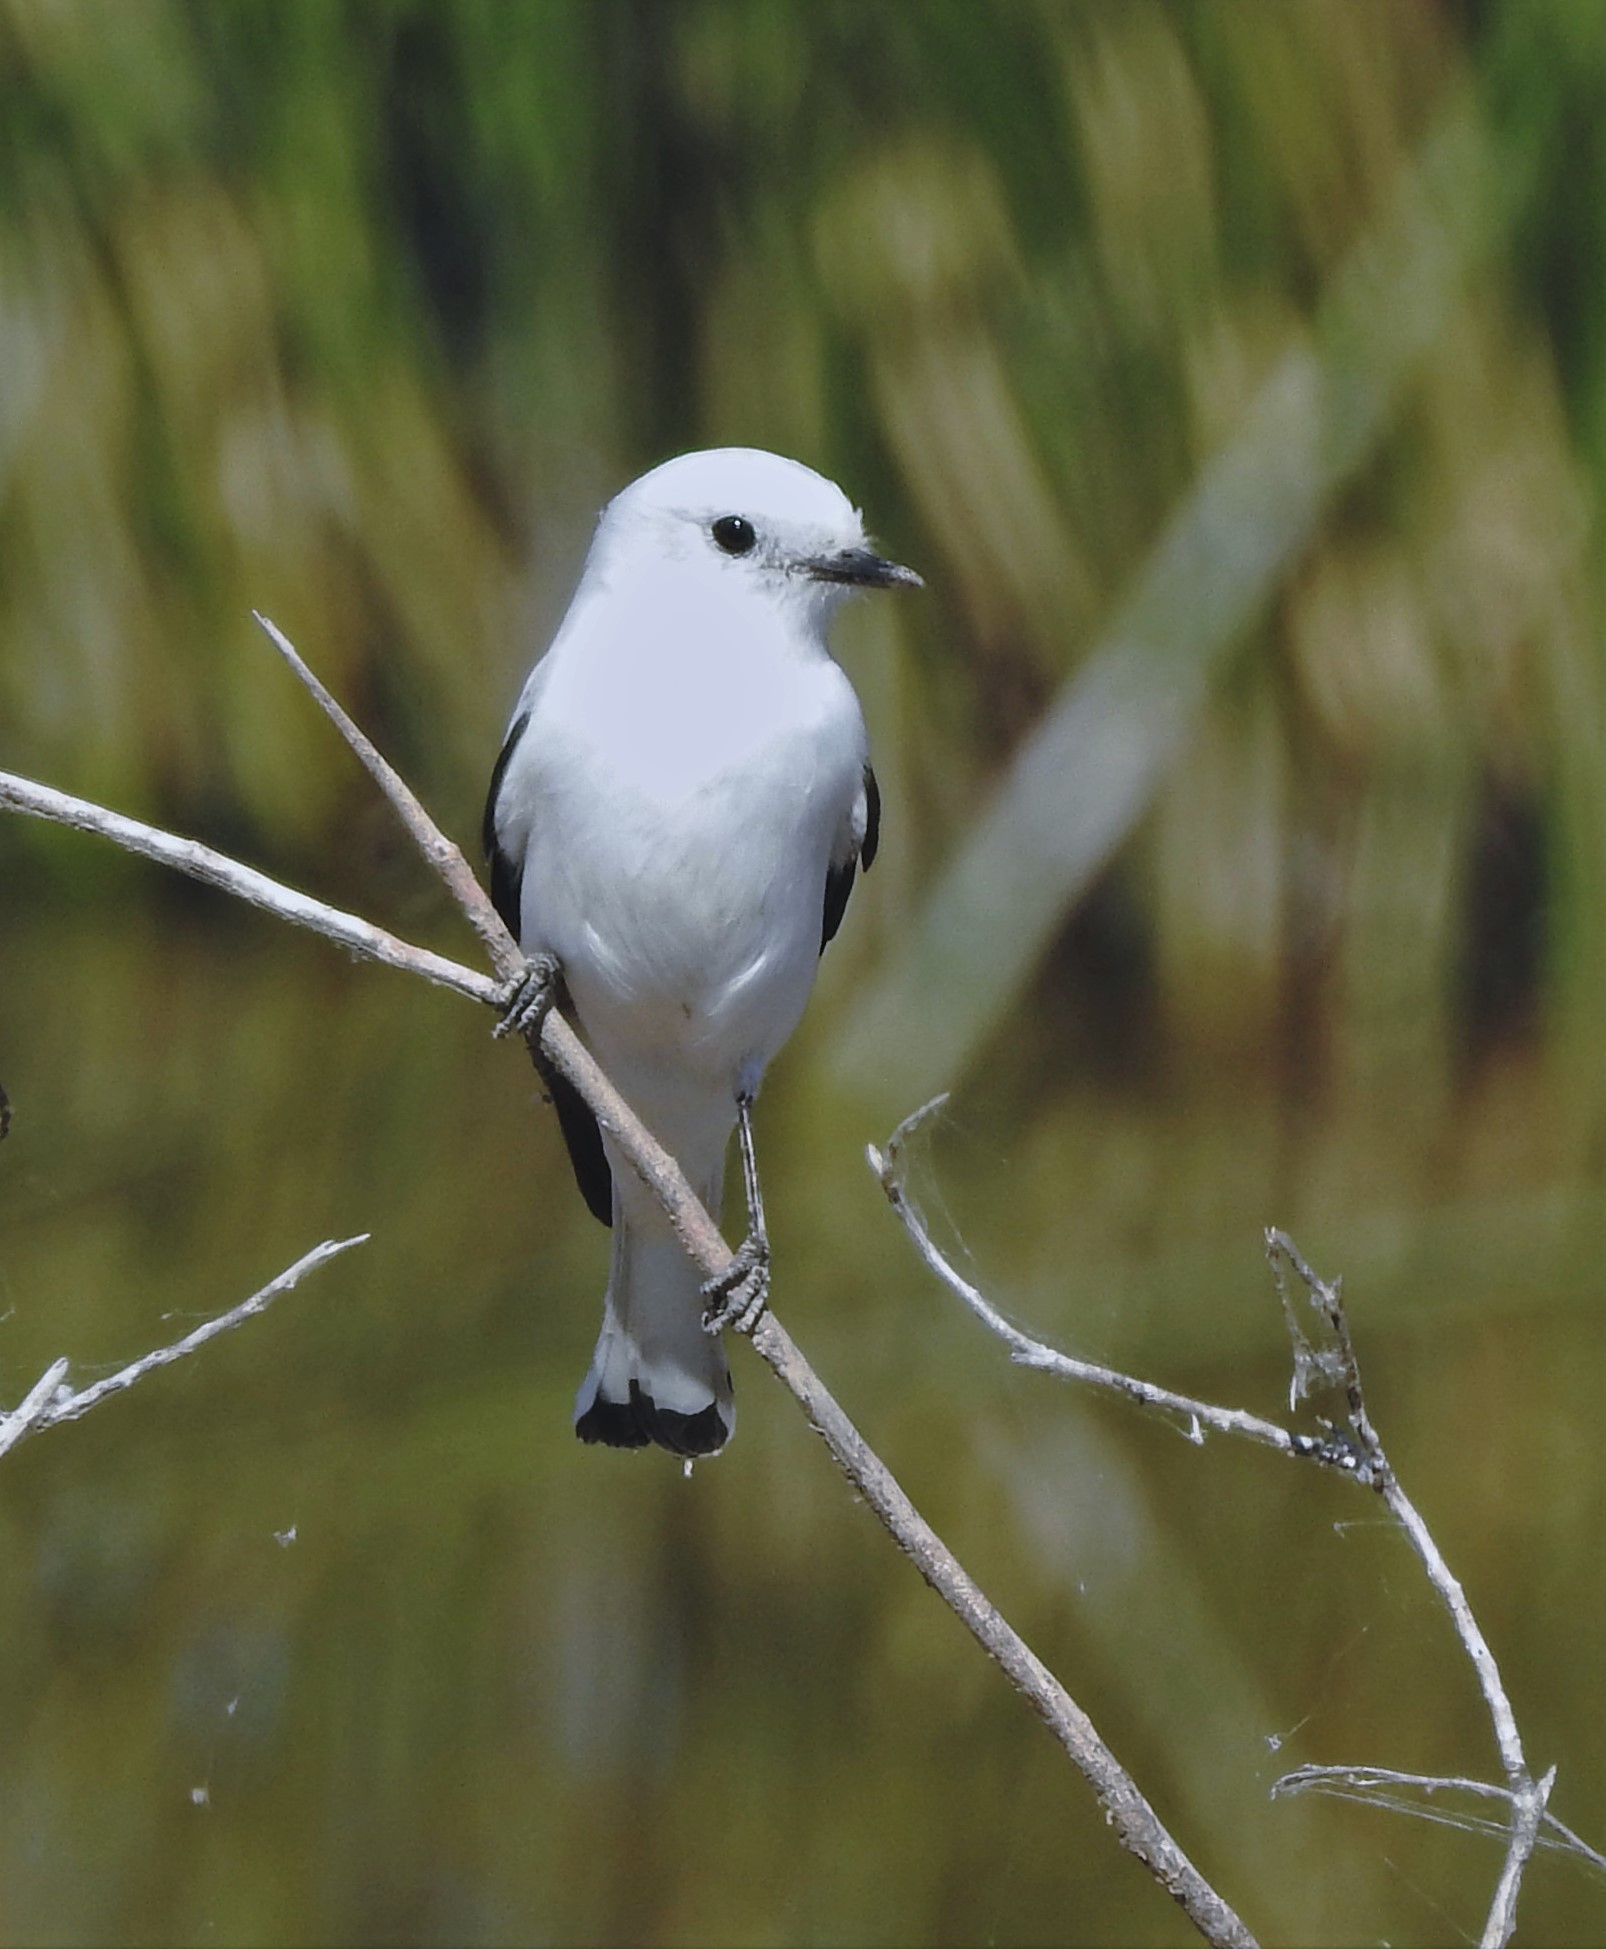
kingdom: Animalia
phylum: Chordata
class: Aves
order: Passeriformes
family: Tyrannidae
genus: Xolmis
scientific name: Xolmis irupero
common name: White monjita
